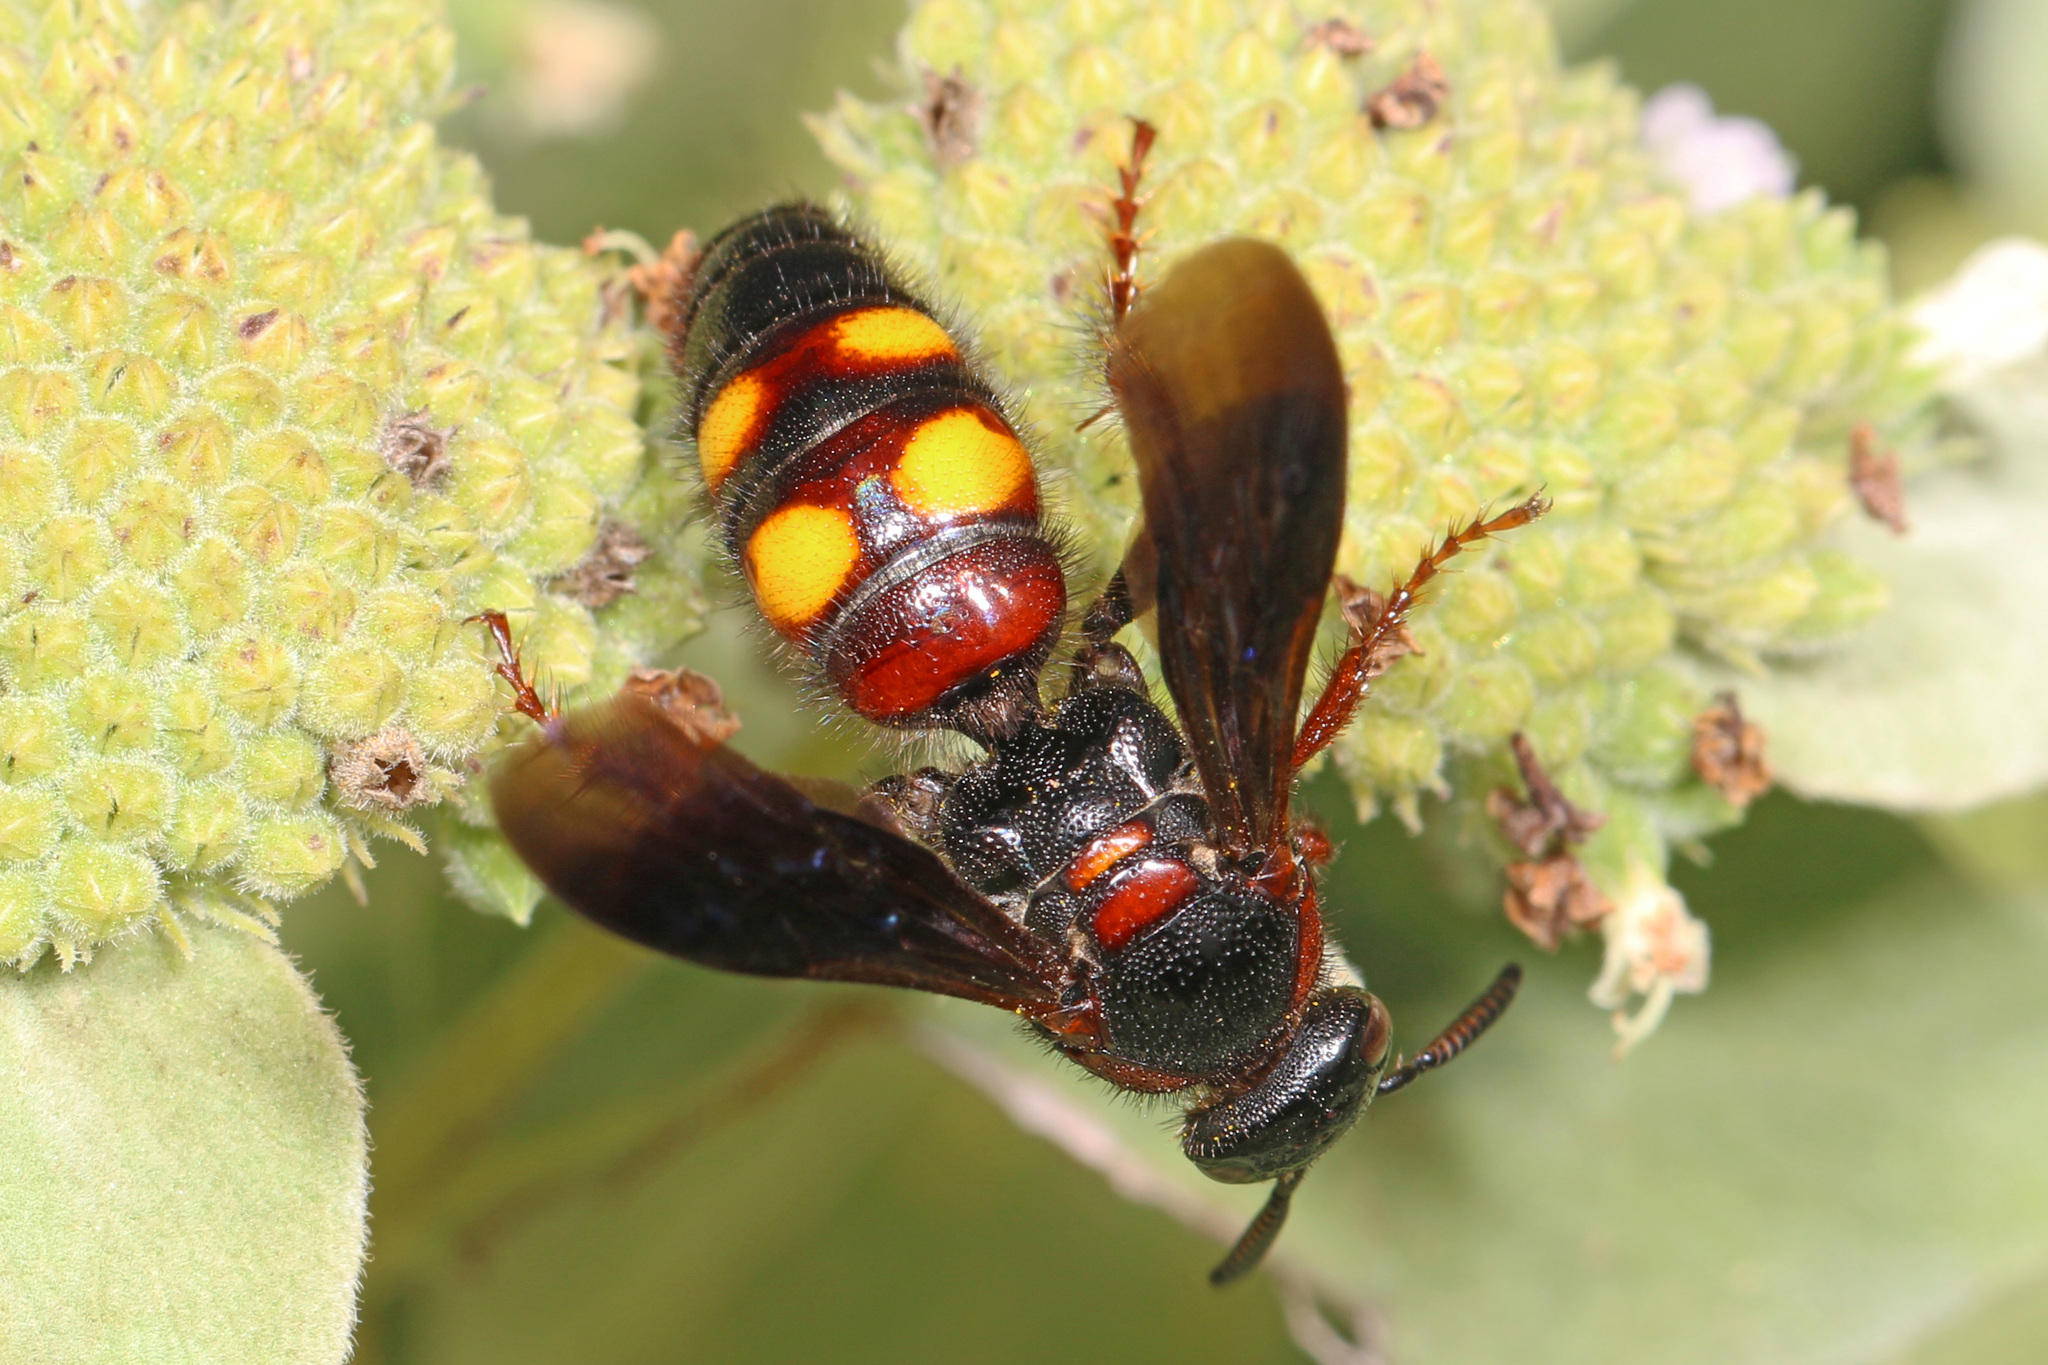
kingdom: Animalia
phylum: Arthropoda
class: Insecta
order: Hymenoptera
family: Scoliidae
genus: Scolia
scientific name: Scolia nobilitata
